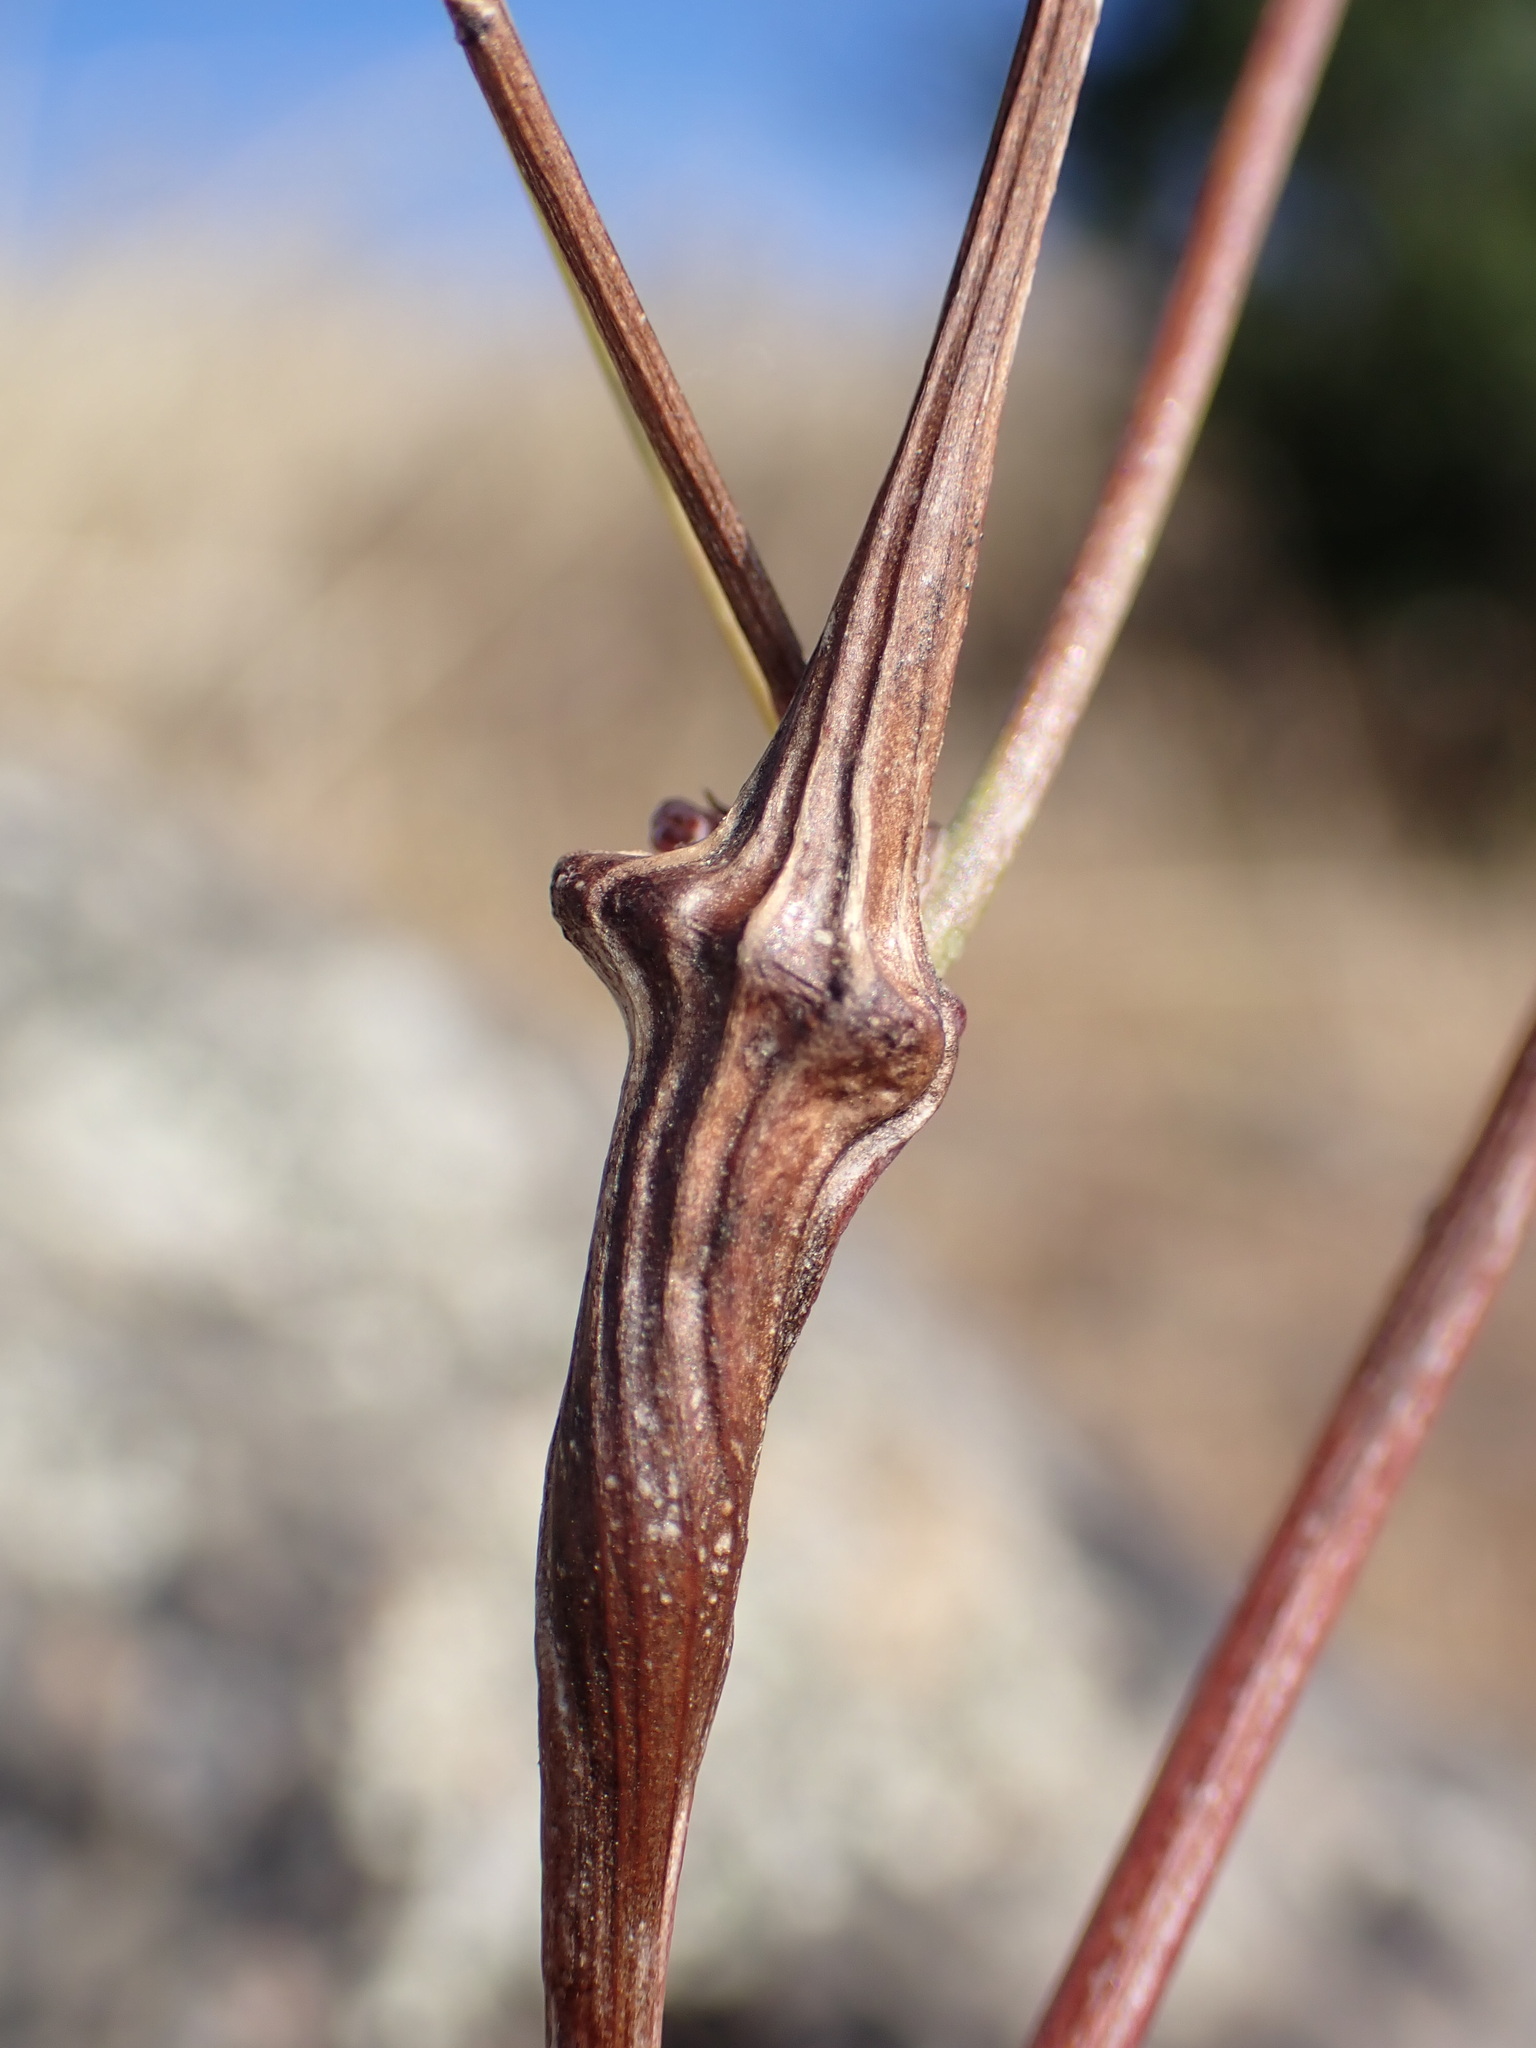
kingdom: Animalia
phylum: Arthropoda
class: Insecta
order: Hymenoptera
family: Cynipidae
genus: Phanacis
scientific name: Phanacis hypochoeridis
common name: Gall wasp
